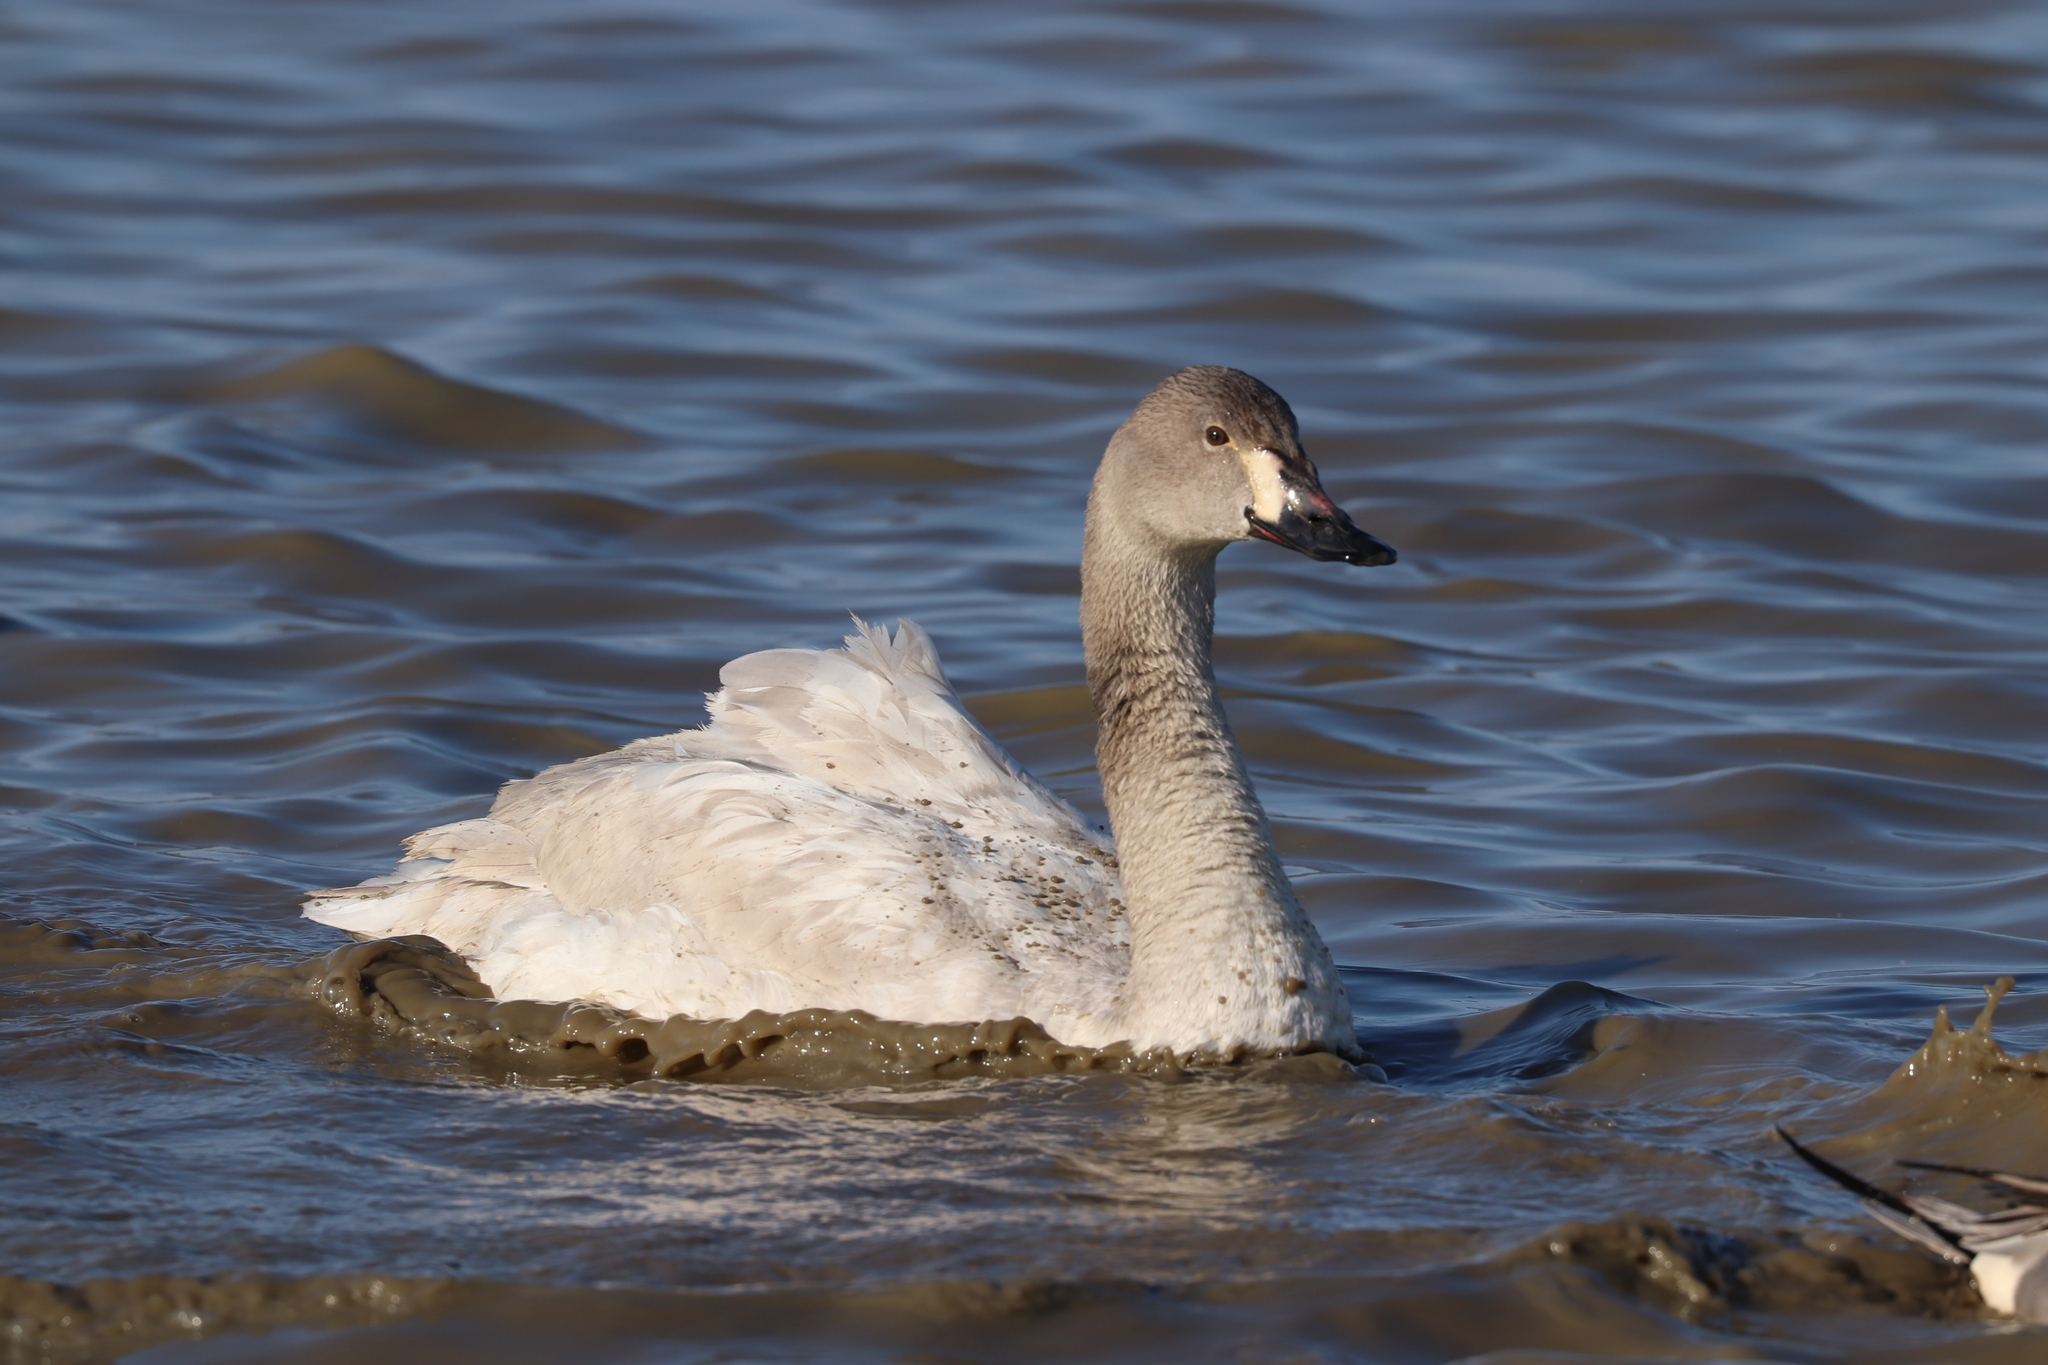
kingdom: Animalia
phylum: Chordata
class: Aves
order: Anseriformes
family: Anatidae
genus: Cygnus
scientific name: Cygnus columbianus
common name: Tundra swan
